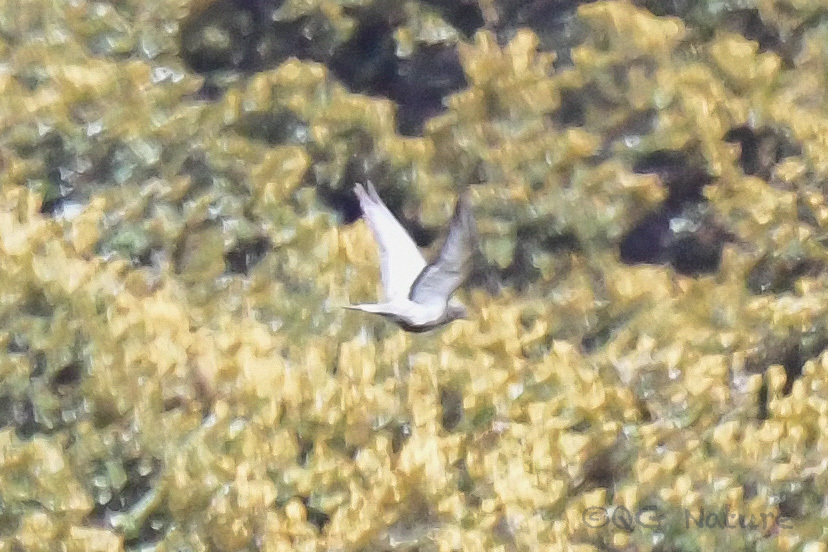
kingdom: Animalia
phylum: Chordata
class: Aves
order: Columbiformes
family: Columbidae
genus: Columba
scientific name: Columba rupestris
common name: Hill pigeon
